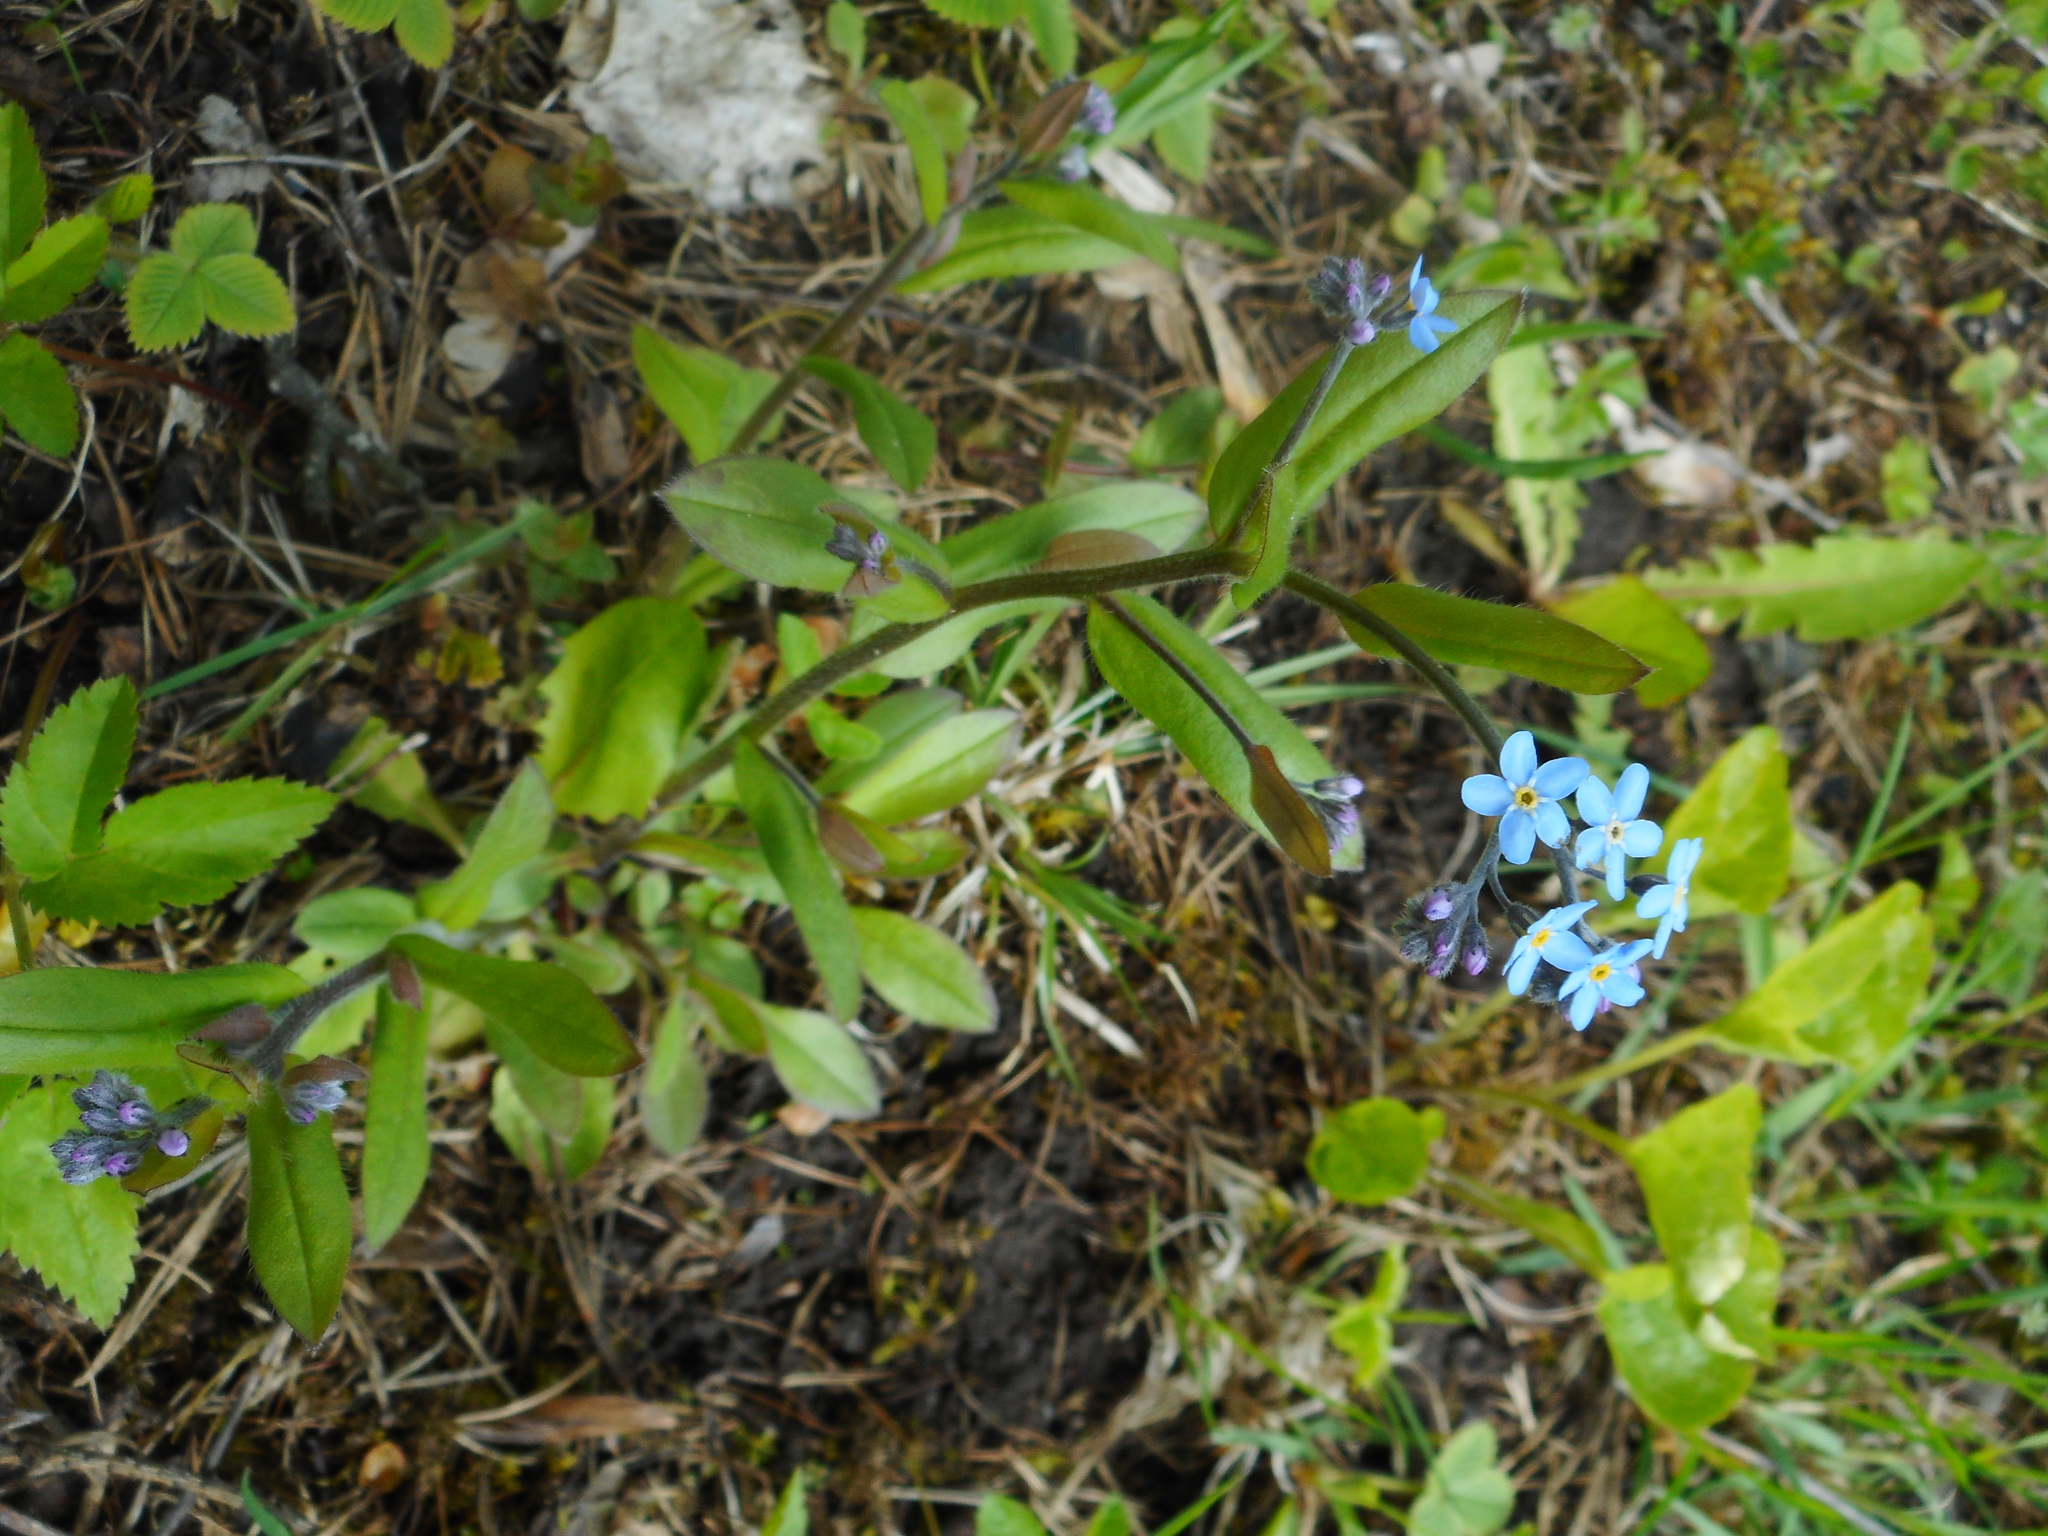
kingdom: Plantae
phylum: Tracheophyta
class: Magnoliopsida
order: Boraginales
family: Boraginaceae
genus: Myosotis
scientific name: Myosotis sylvatica
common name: Wood forget-me-not
